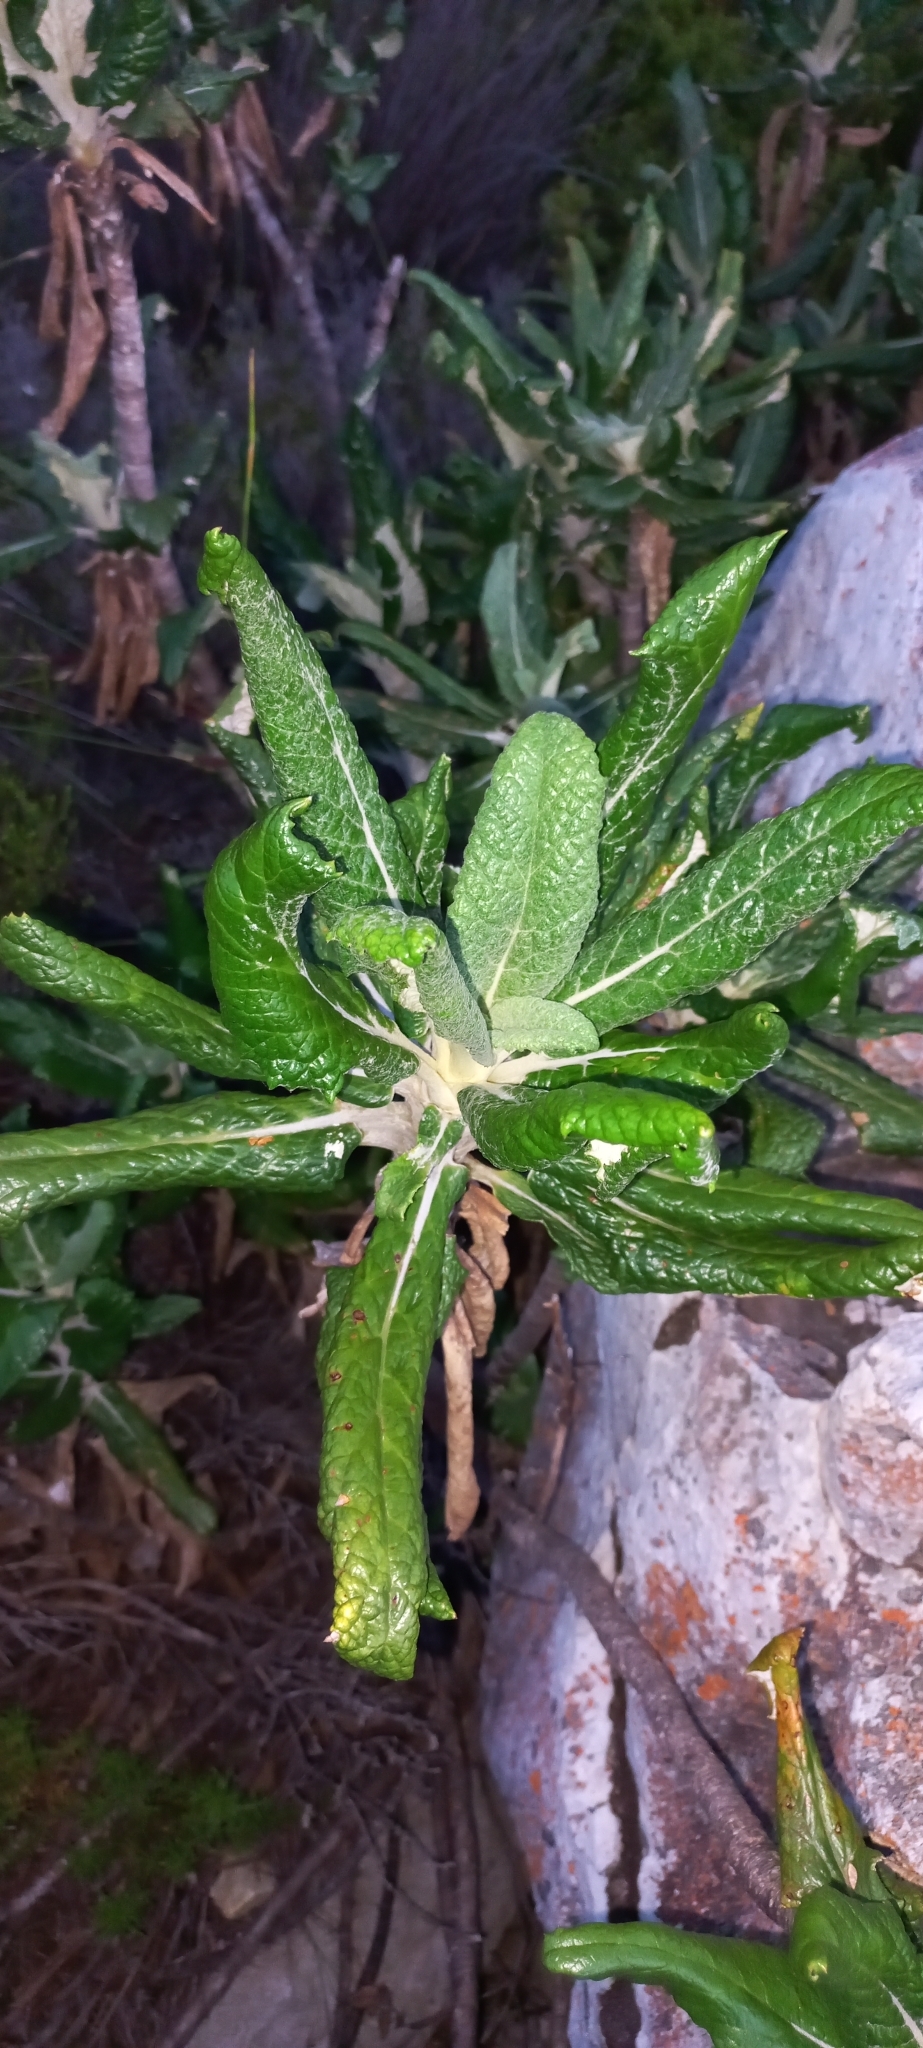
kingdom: Plantae
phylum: Tracheophyta
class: Magnoliopsida
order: Apiales
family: Apiaceae
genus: Hermas
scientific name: Hermas villosa
